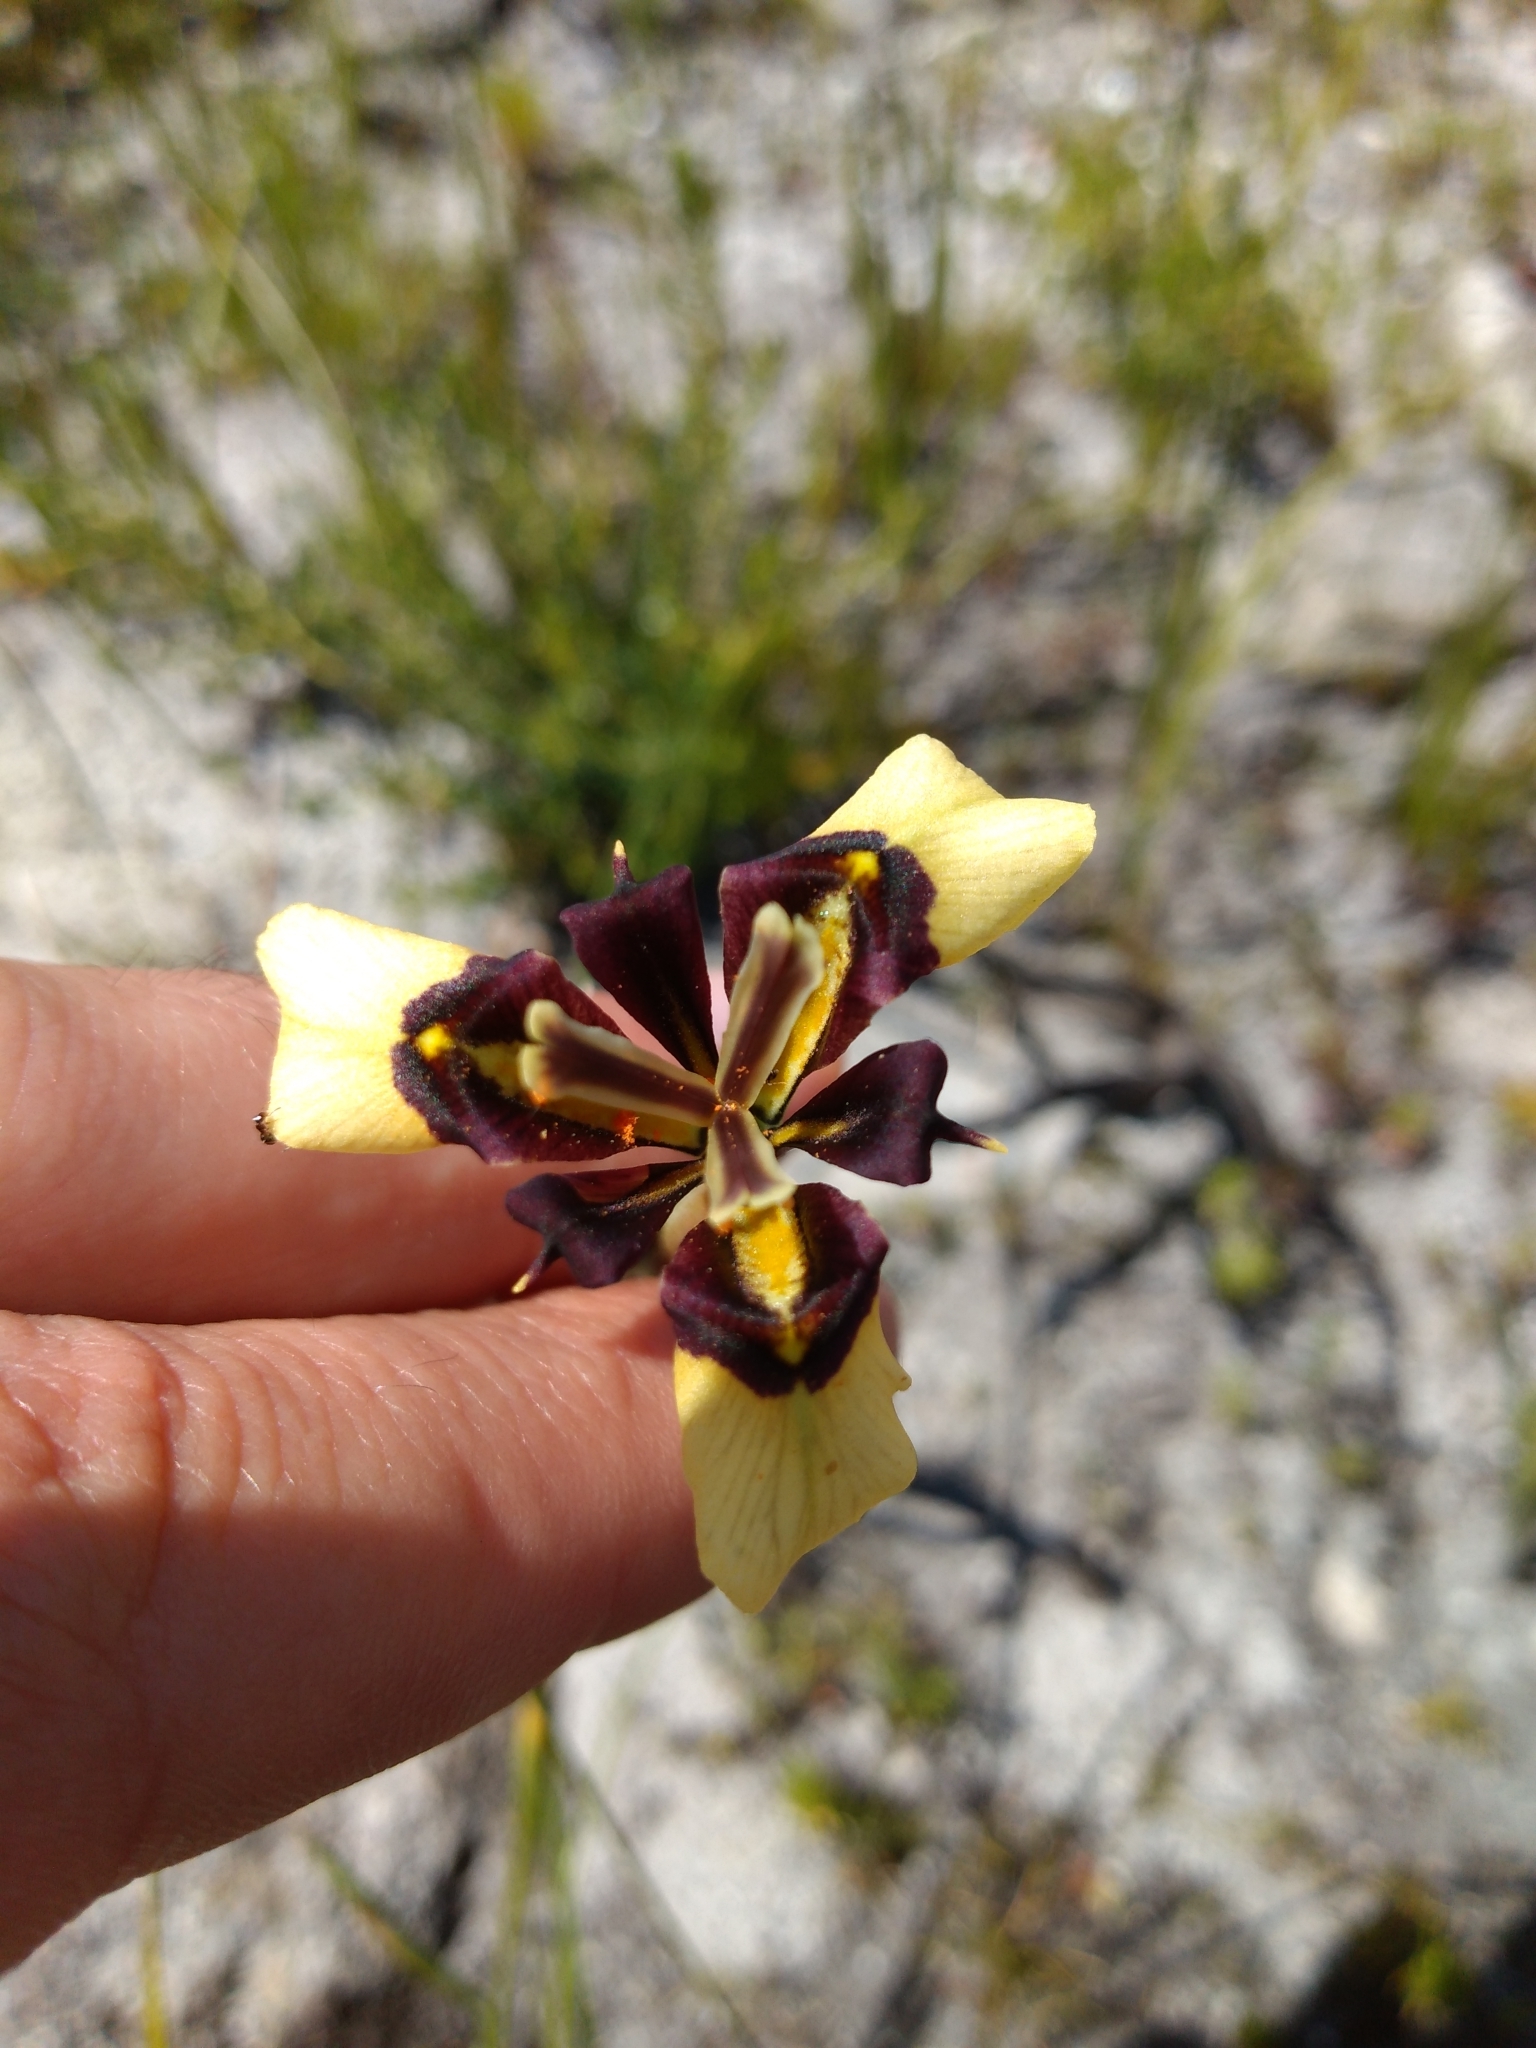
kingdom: Plantae
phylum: Tracheophyta
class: Liliopsida
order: Asparagales
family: Iridaceae
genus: Moraea
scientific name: Moraea lurida
